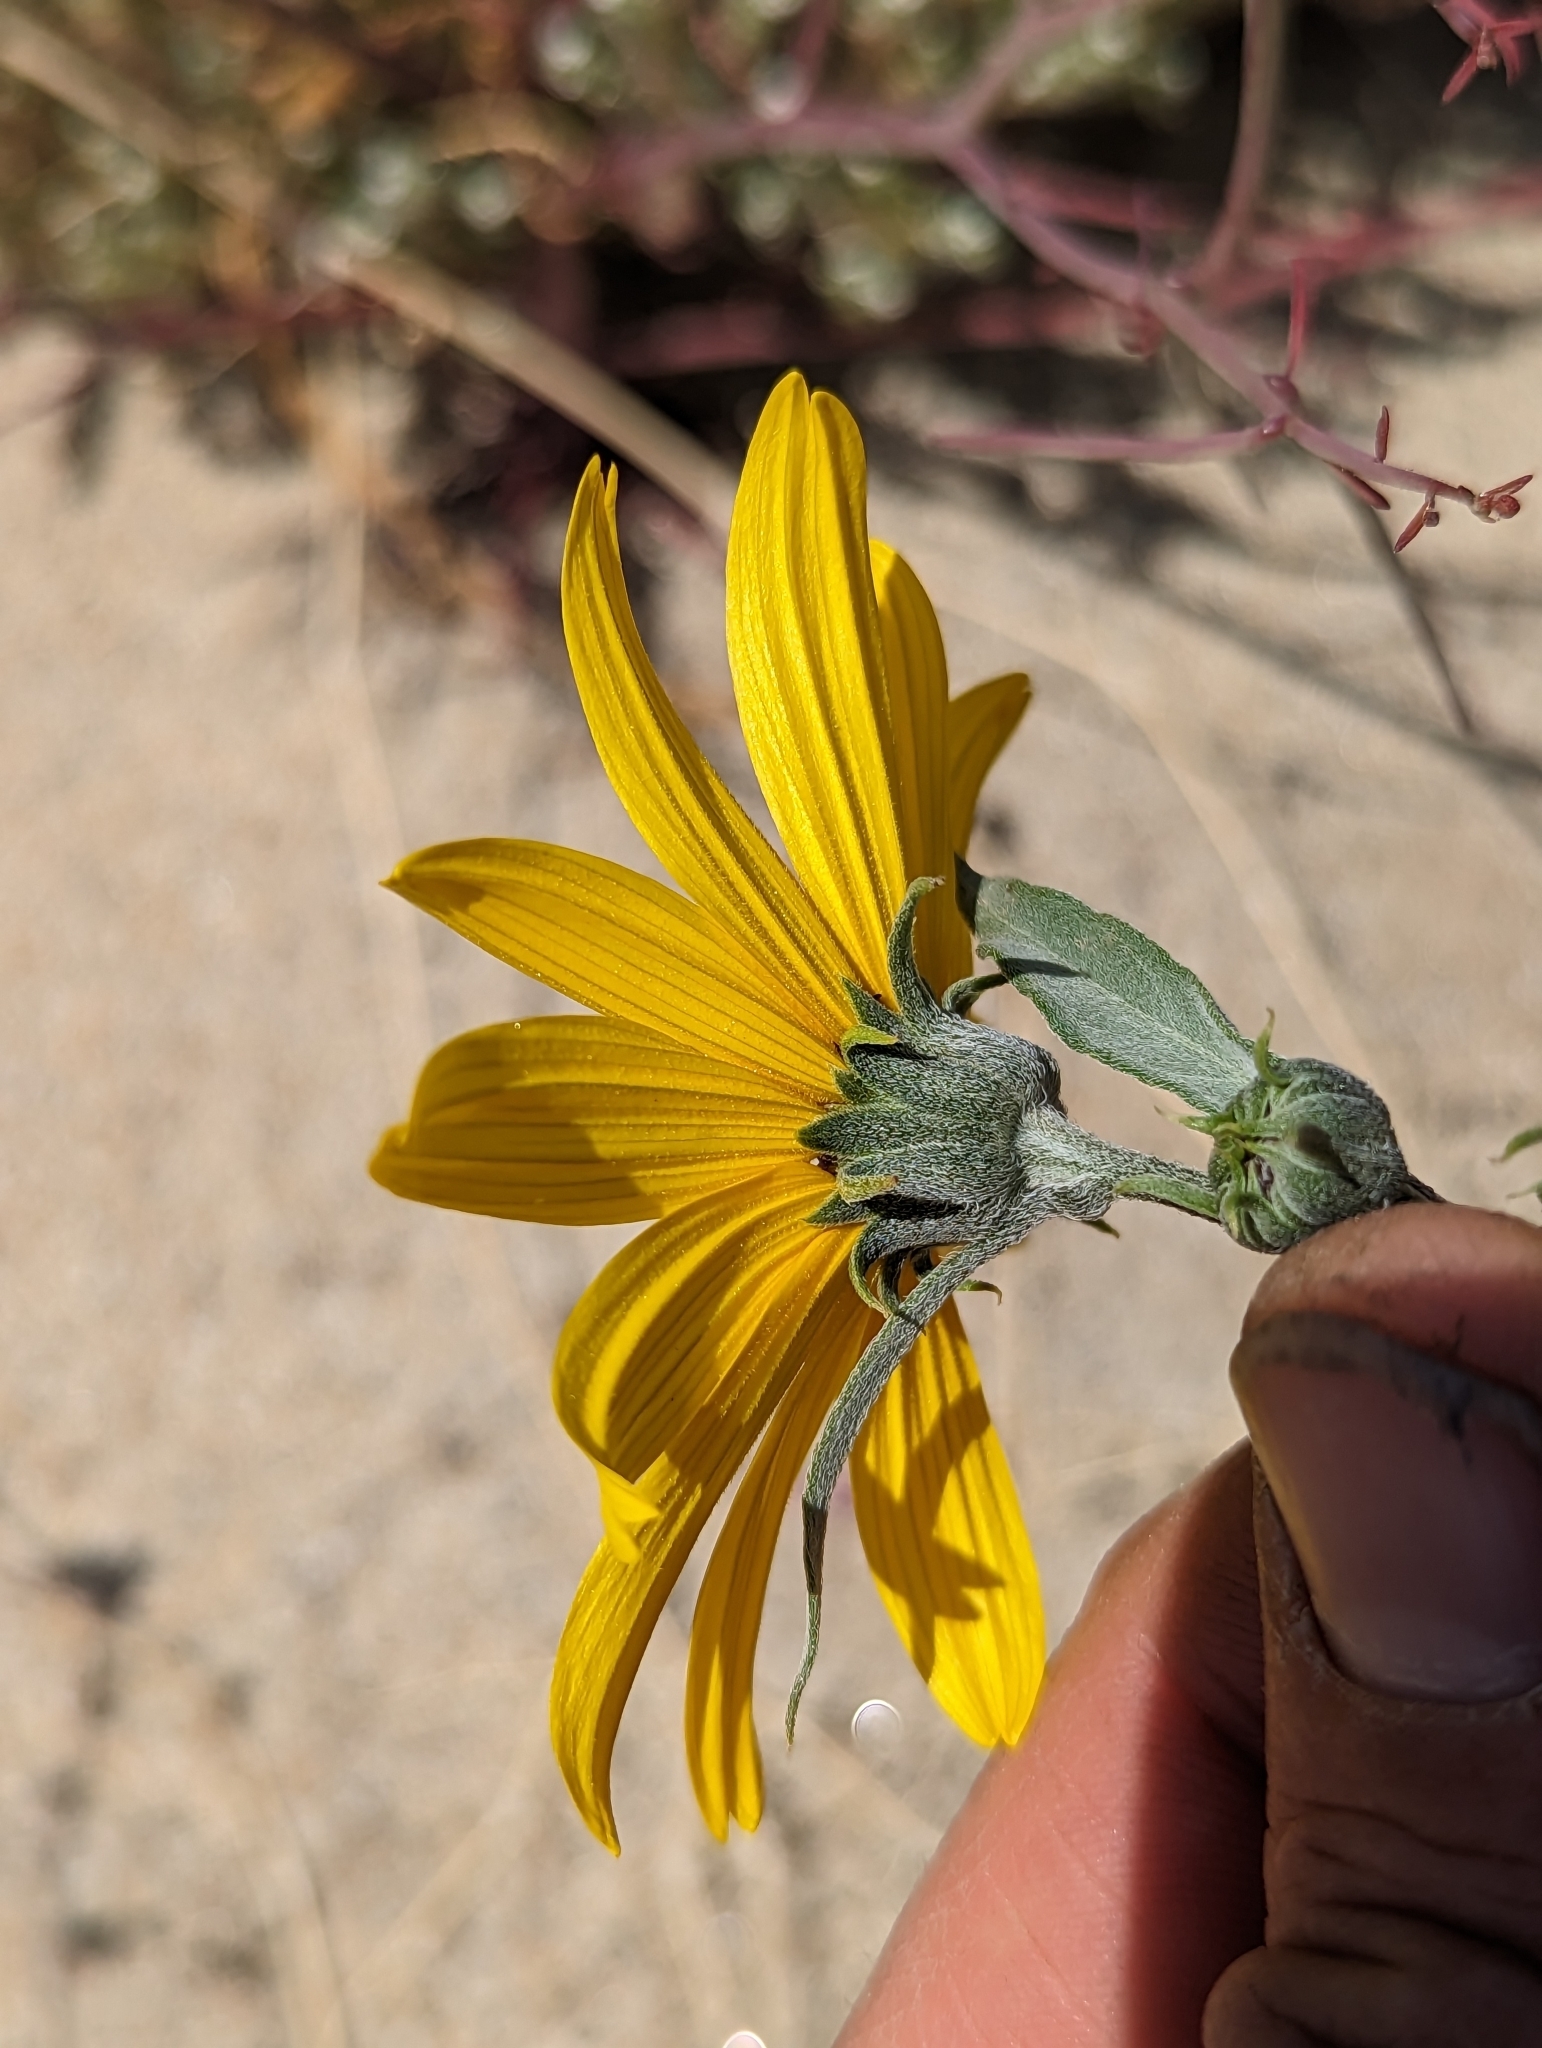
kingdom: Plantae
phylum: Tracheophyta
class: Magnoliopsida
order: Asterales
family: Asteraceae
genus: Helianthus
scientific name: Helianthus petiolaris
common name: Lesser sunflower
